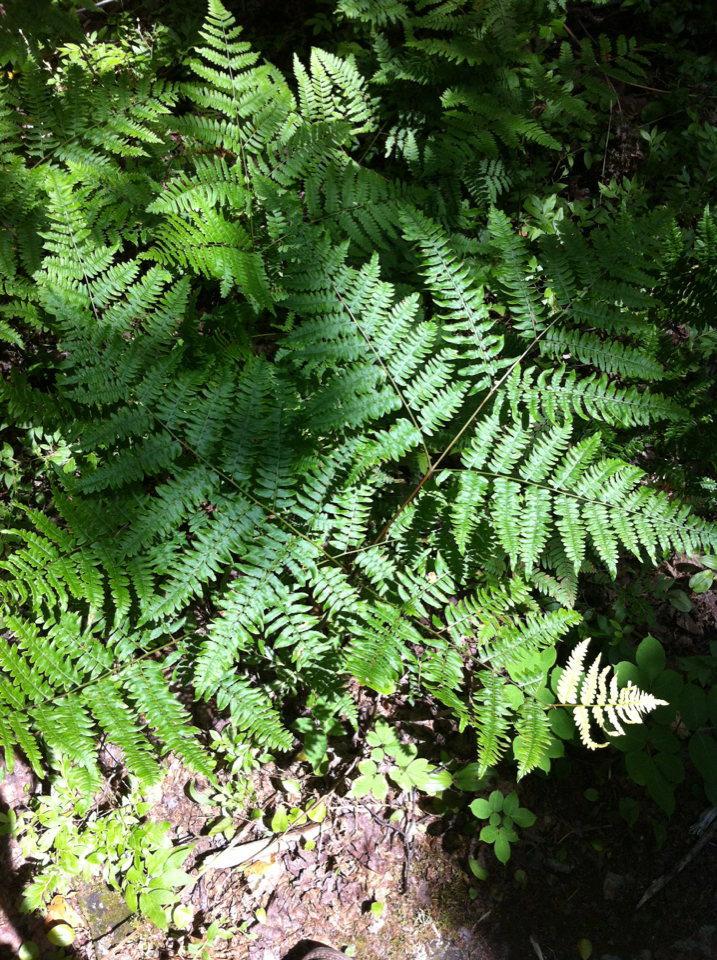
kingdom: Plantae
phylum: Tracheophyta
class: Polypodiopsida
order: Polypodiales
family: Dennstaedtiaceae
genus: Pteridium
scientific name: Pteridium aquilinum
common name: Bracken
